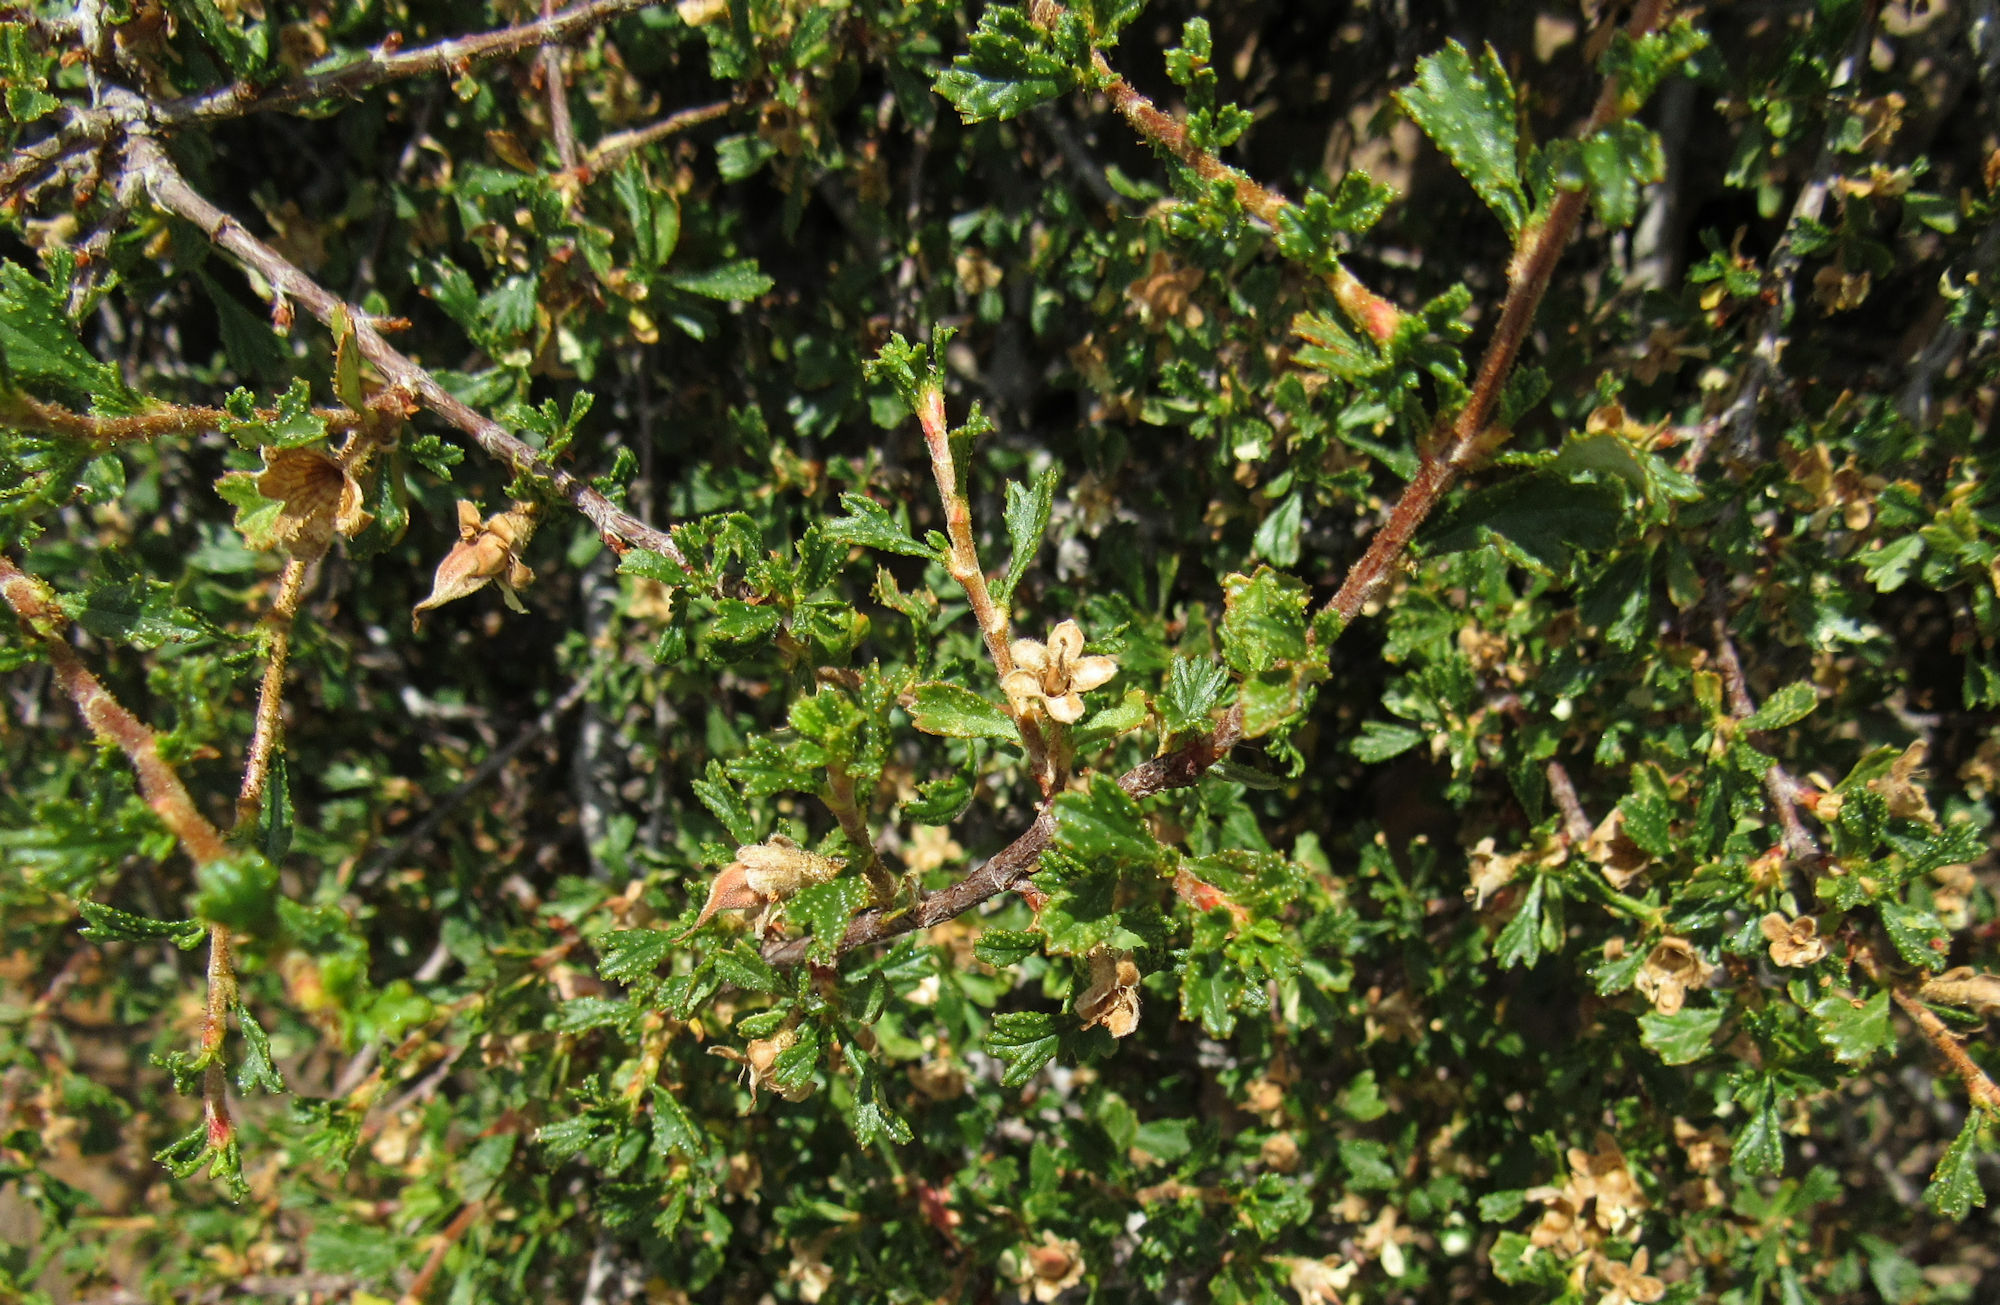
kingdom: Plantae
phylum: Tracheophyta
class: Magnoliopsida
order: Rosales
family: Rosaceae
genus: Purshia
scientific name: Purshia tridentata
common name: Antelope bitterbrush
